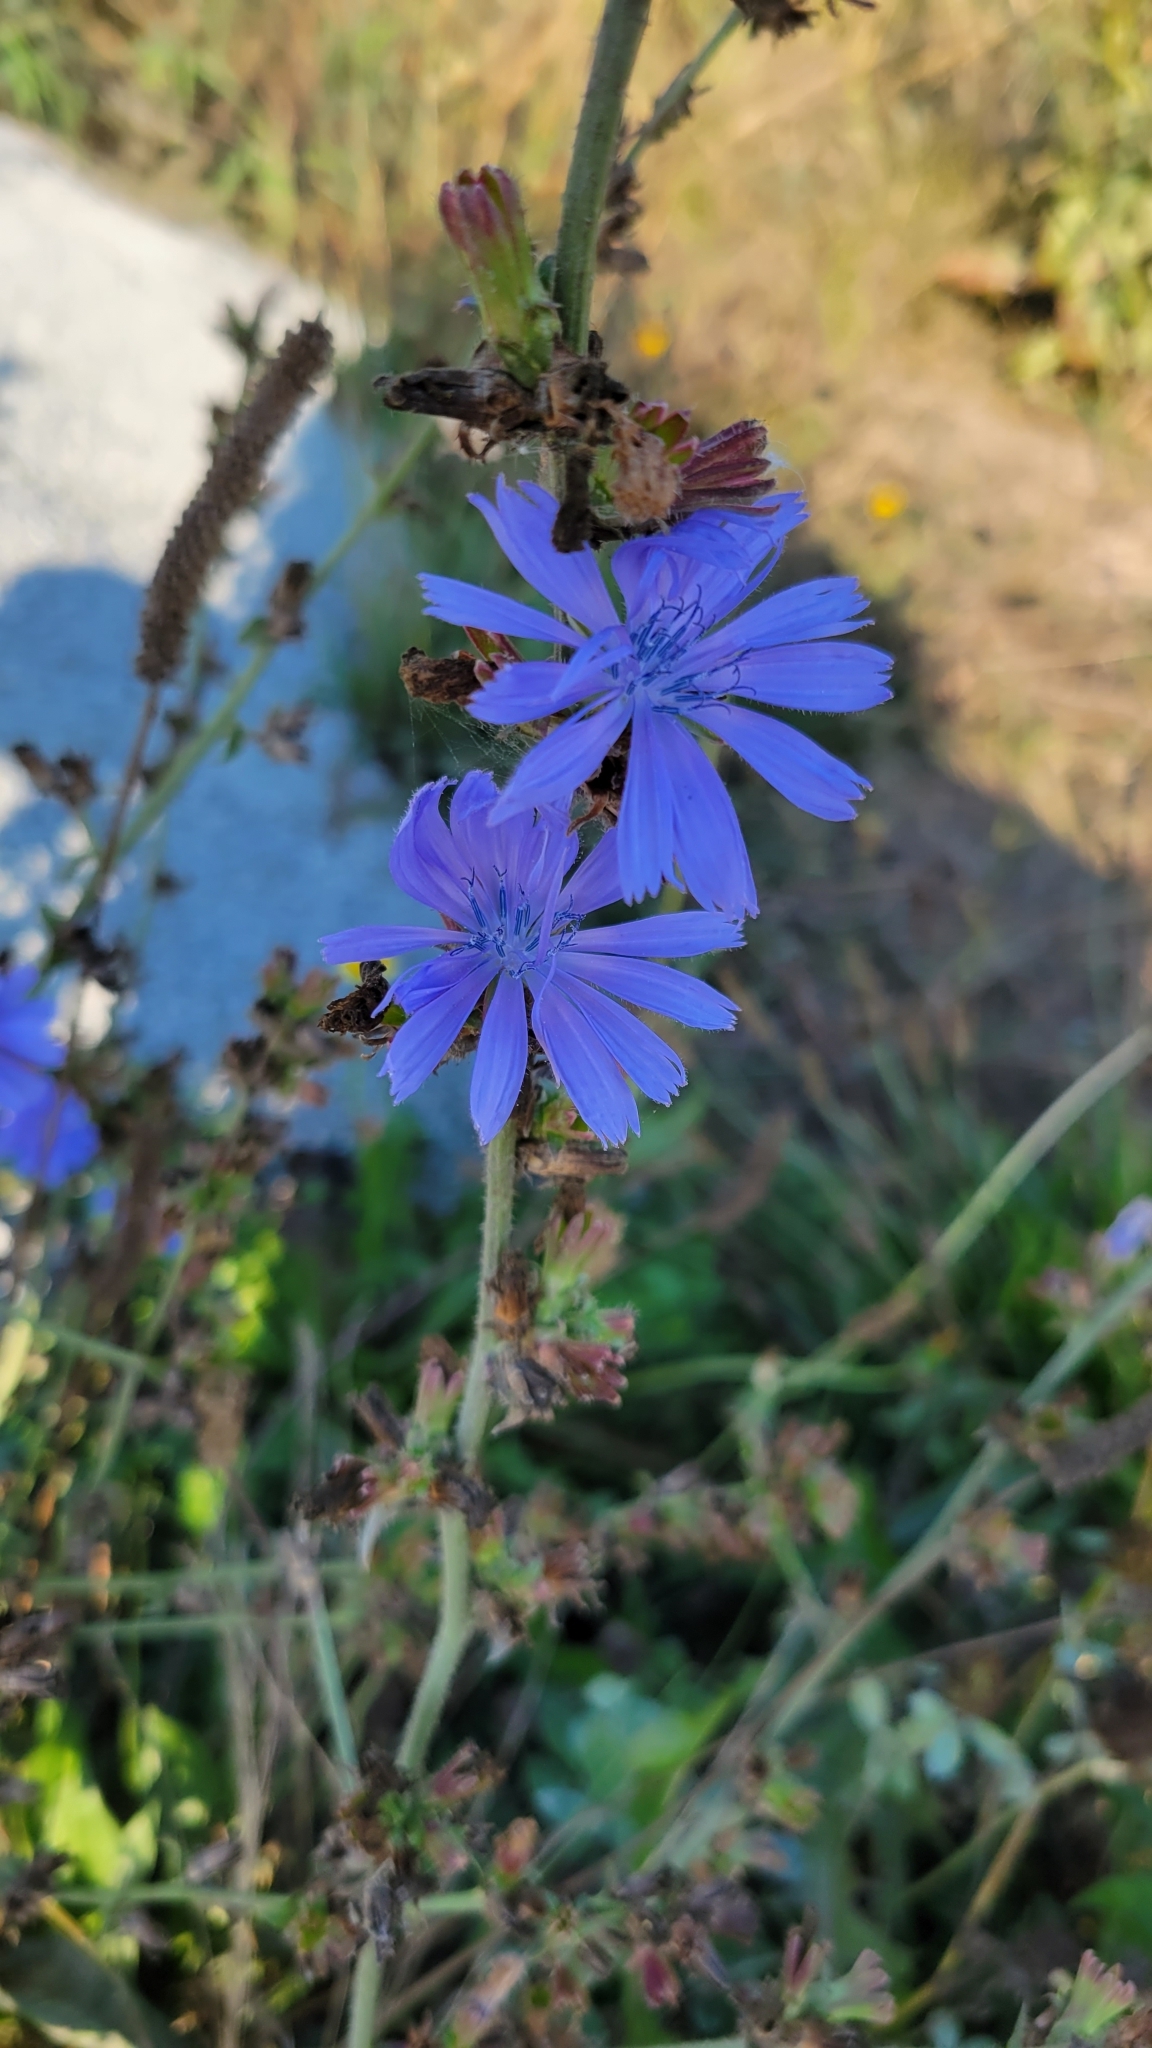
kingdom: Plantae
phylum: Tracheophyta
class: Magnoliopsida
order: Asterales
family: Asteraceae
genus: Cichorium
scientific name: Cichorium intybus
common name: Chicory
